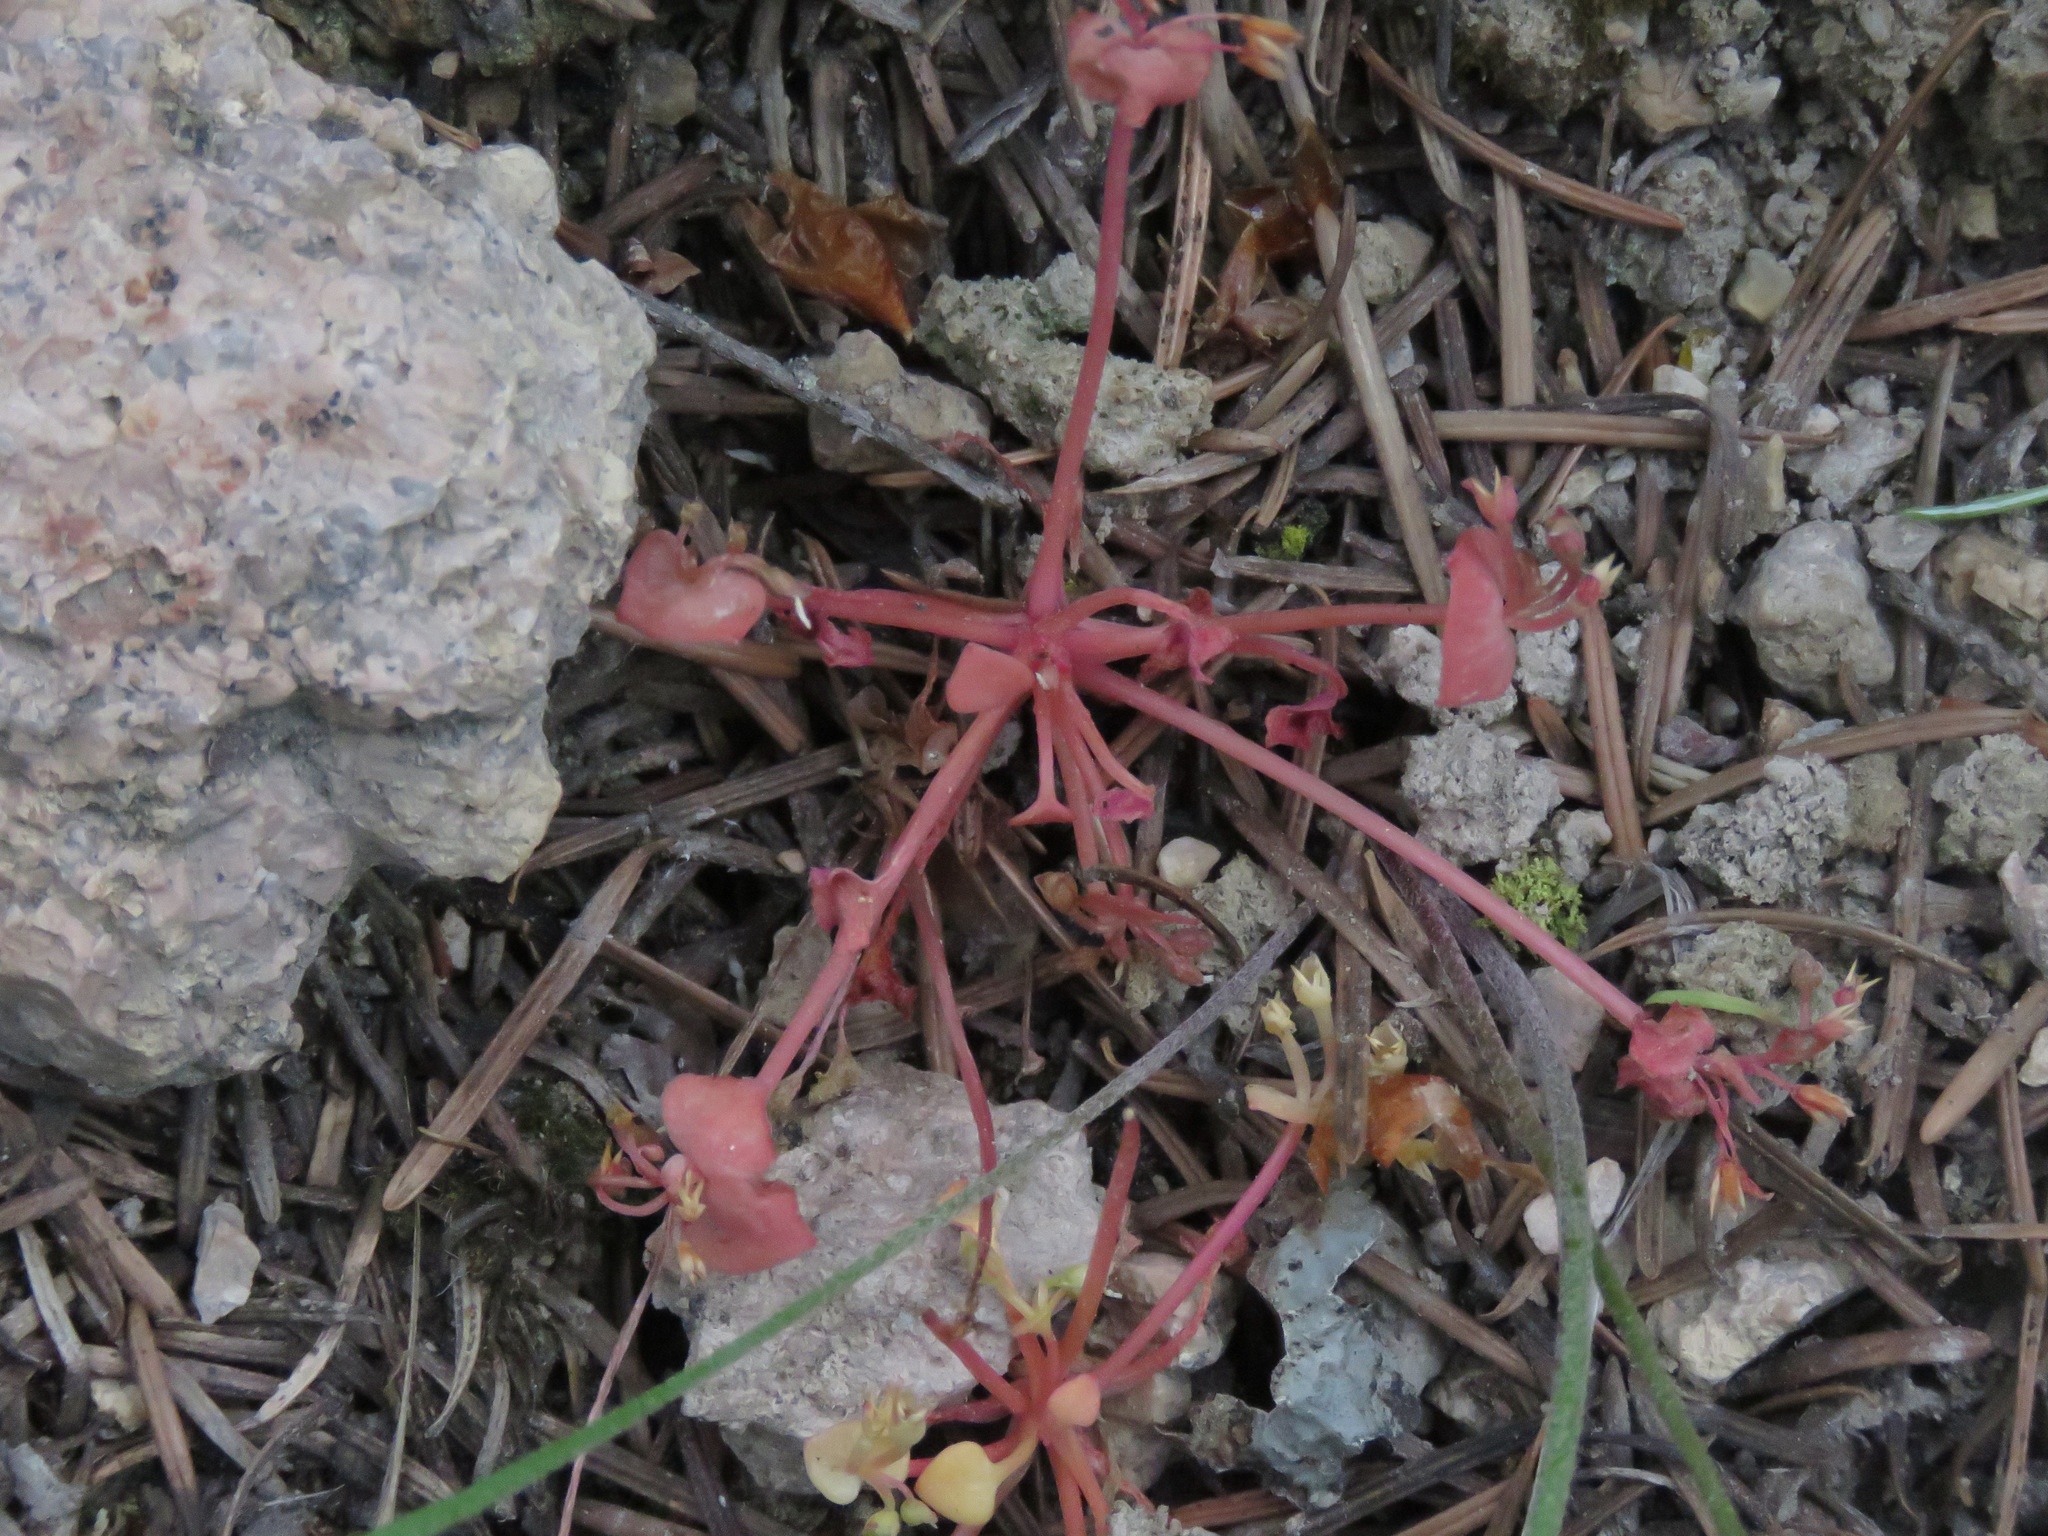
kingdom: Plantae
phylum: Tracheophyta
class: Magnoliopsida
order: Caryophyllales
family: Montiaceae
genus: Claytonia
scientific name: Claytonia rubra
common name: Erubescent miner's-lettuce
